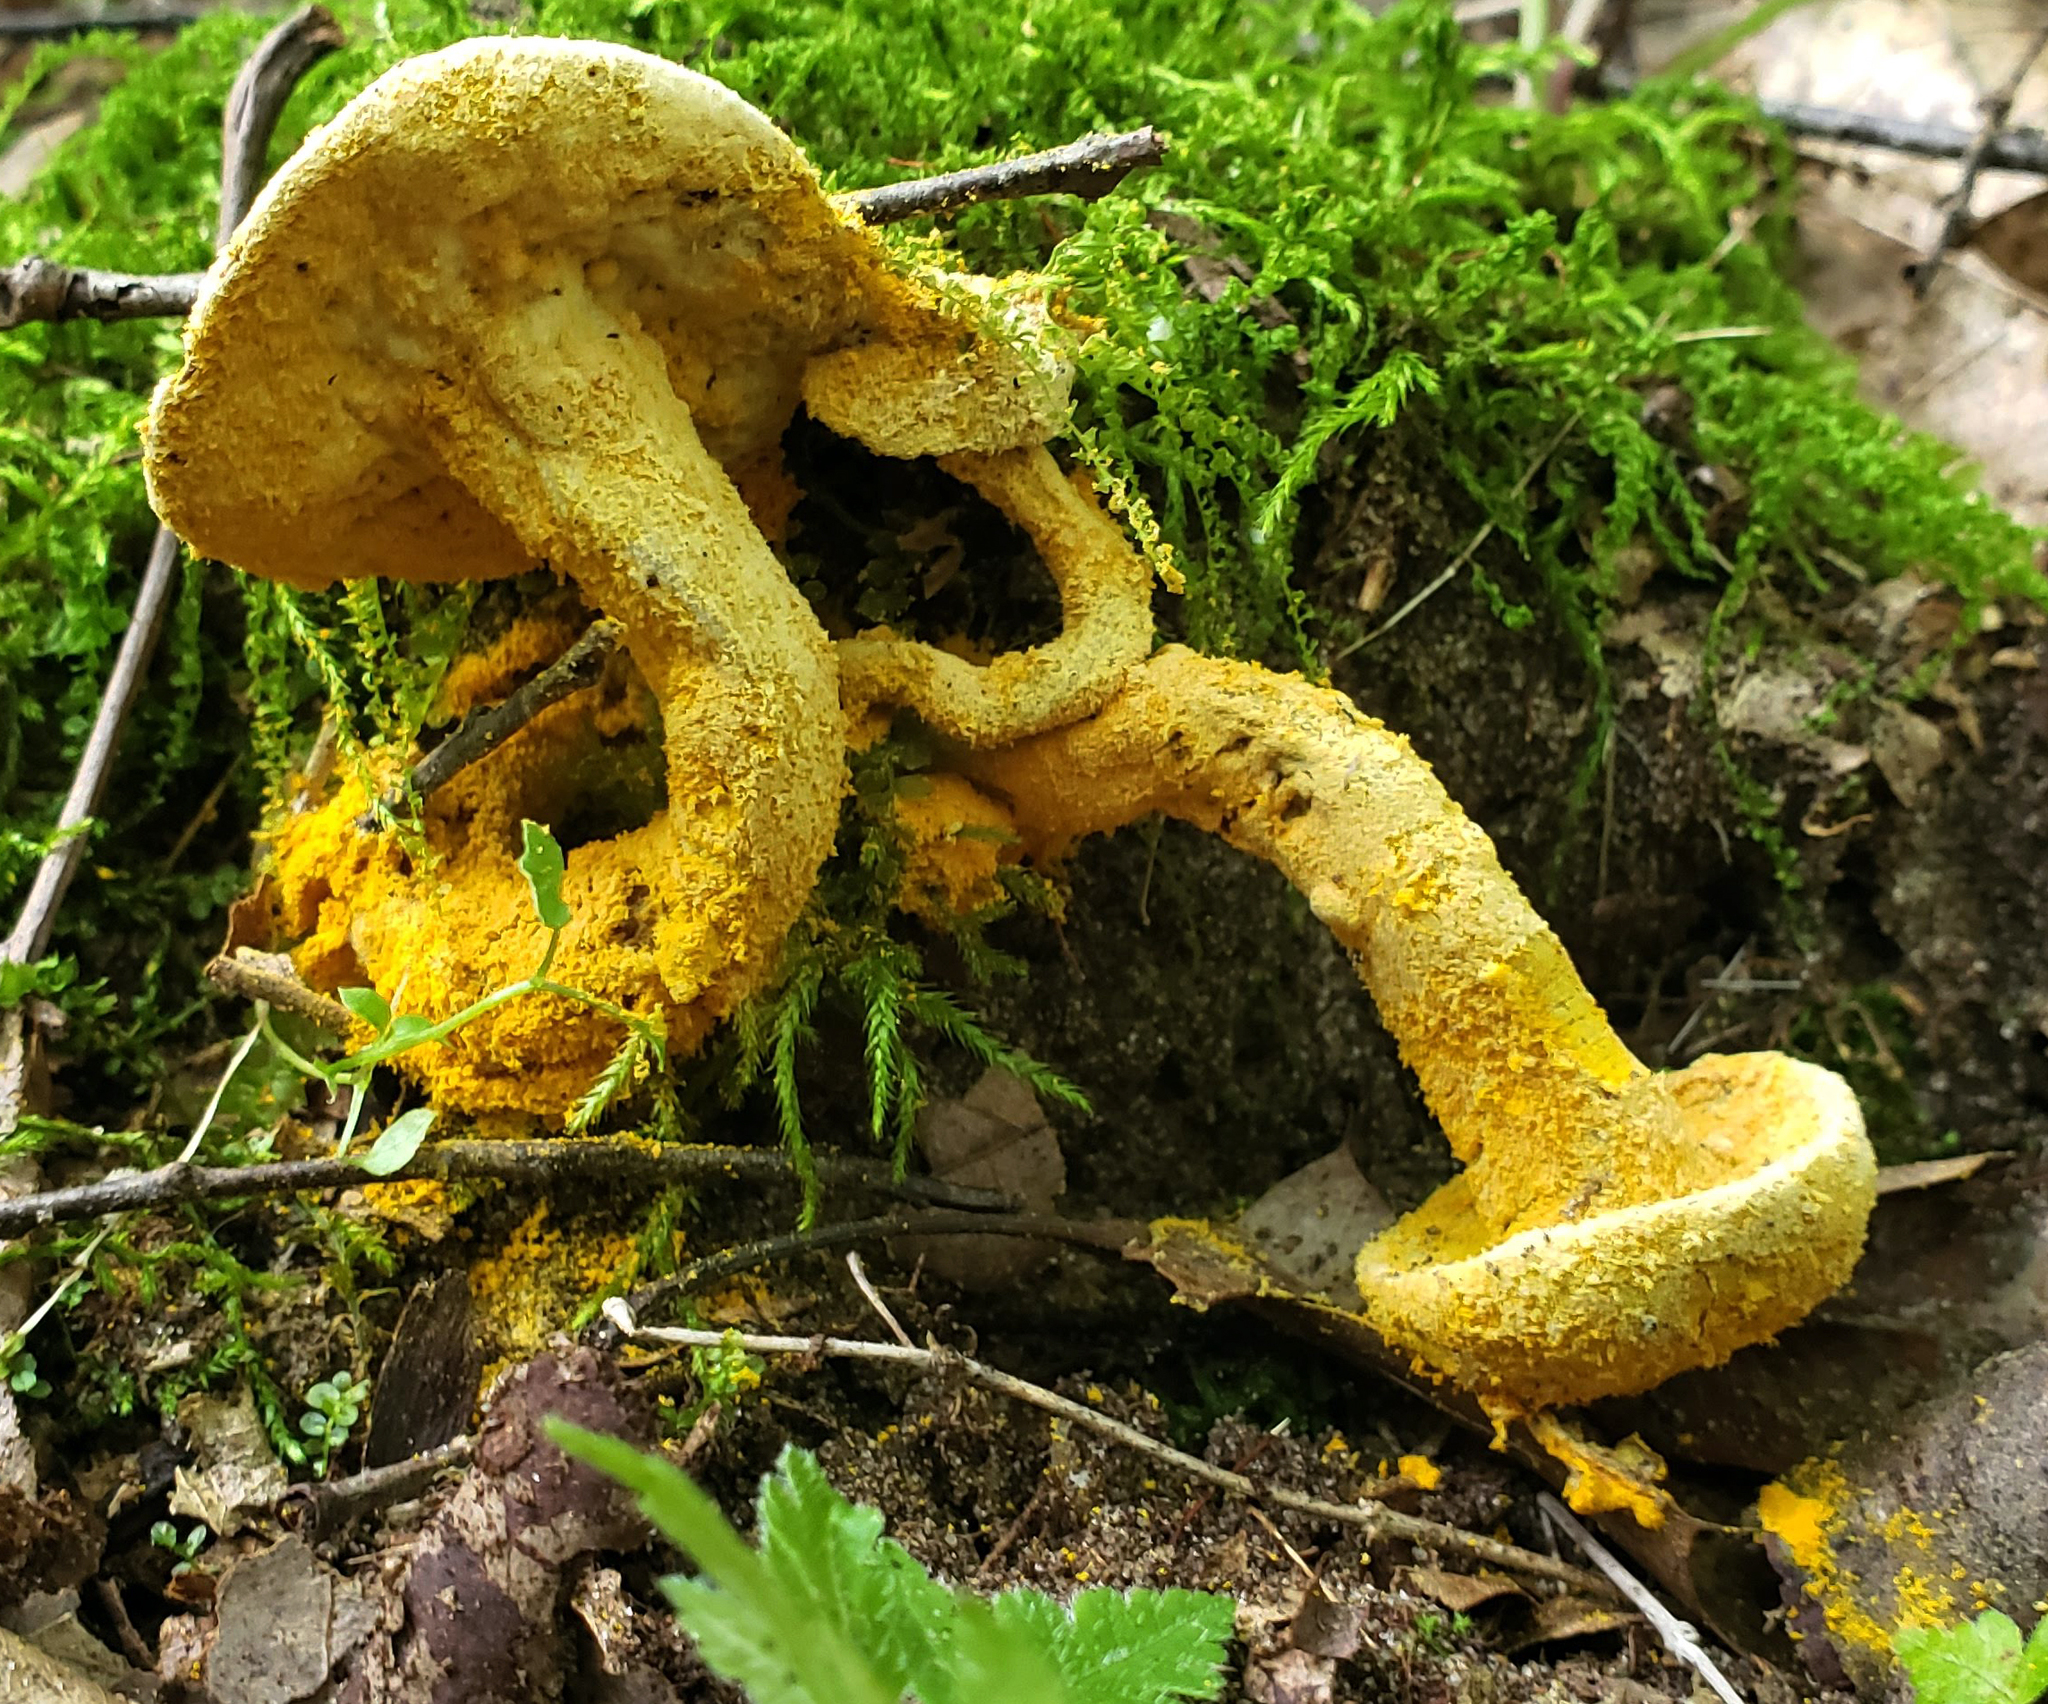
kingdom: Fungi
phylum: Ascomycota
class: Sordariomycetes
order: Hypocreales
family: Hypocreaceae
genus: Hypomyces
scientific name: Hypomyces chrysospermus
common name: Bolete mould
